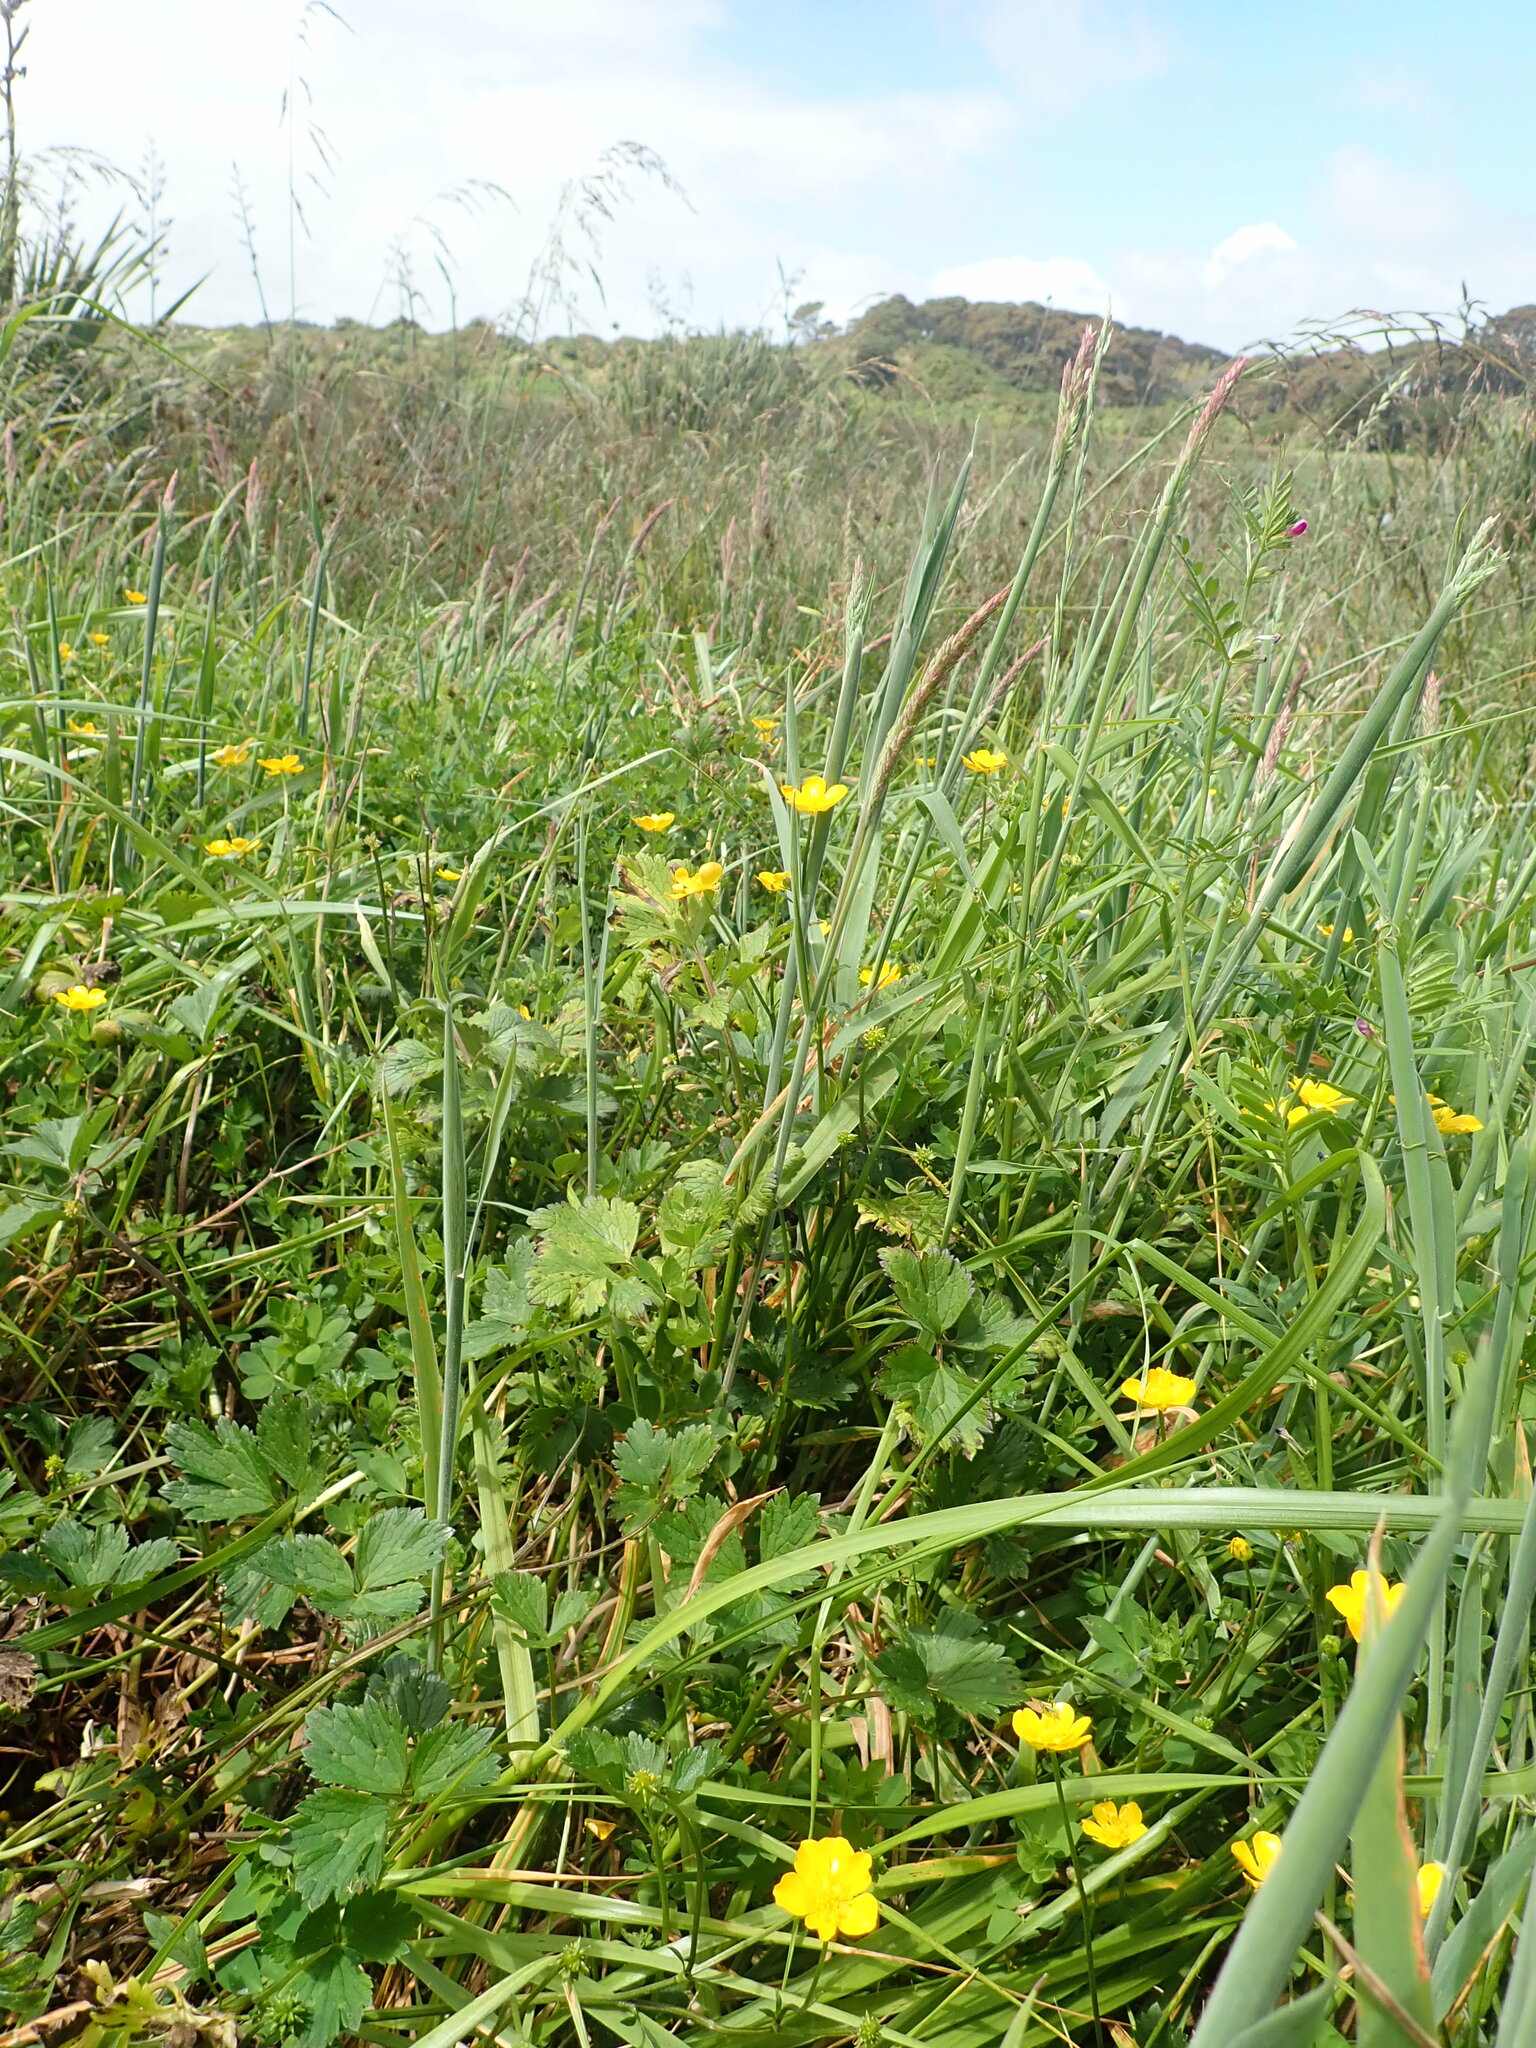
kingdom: Plantae
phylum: Tracheophyta
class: Magnoliopsida
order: Ranunculales
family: Ranunculaceae
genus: Ranunculus
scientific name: Ranunculus repens
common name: Creeping buttercup
